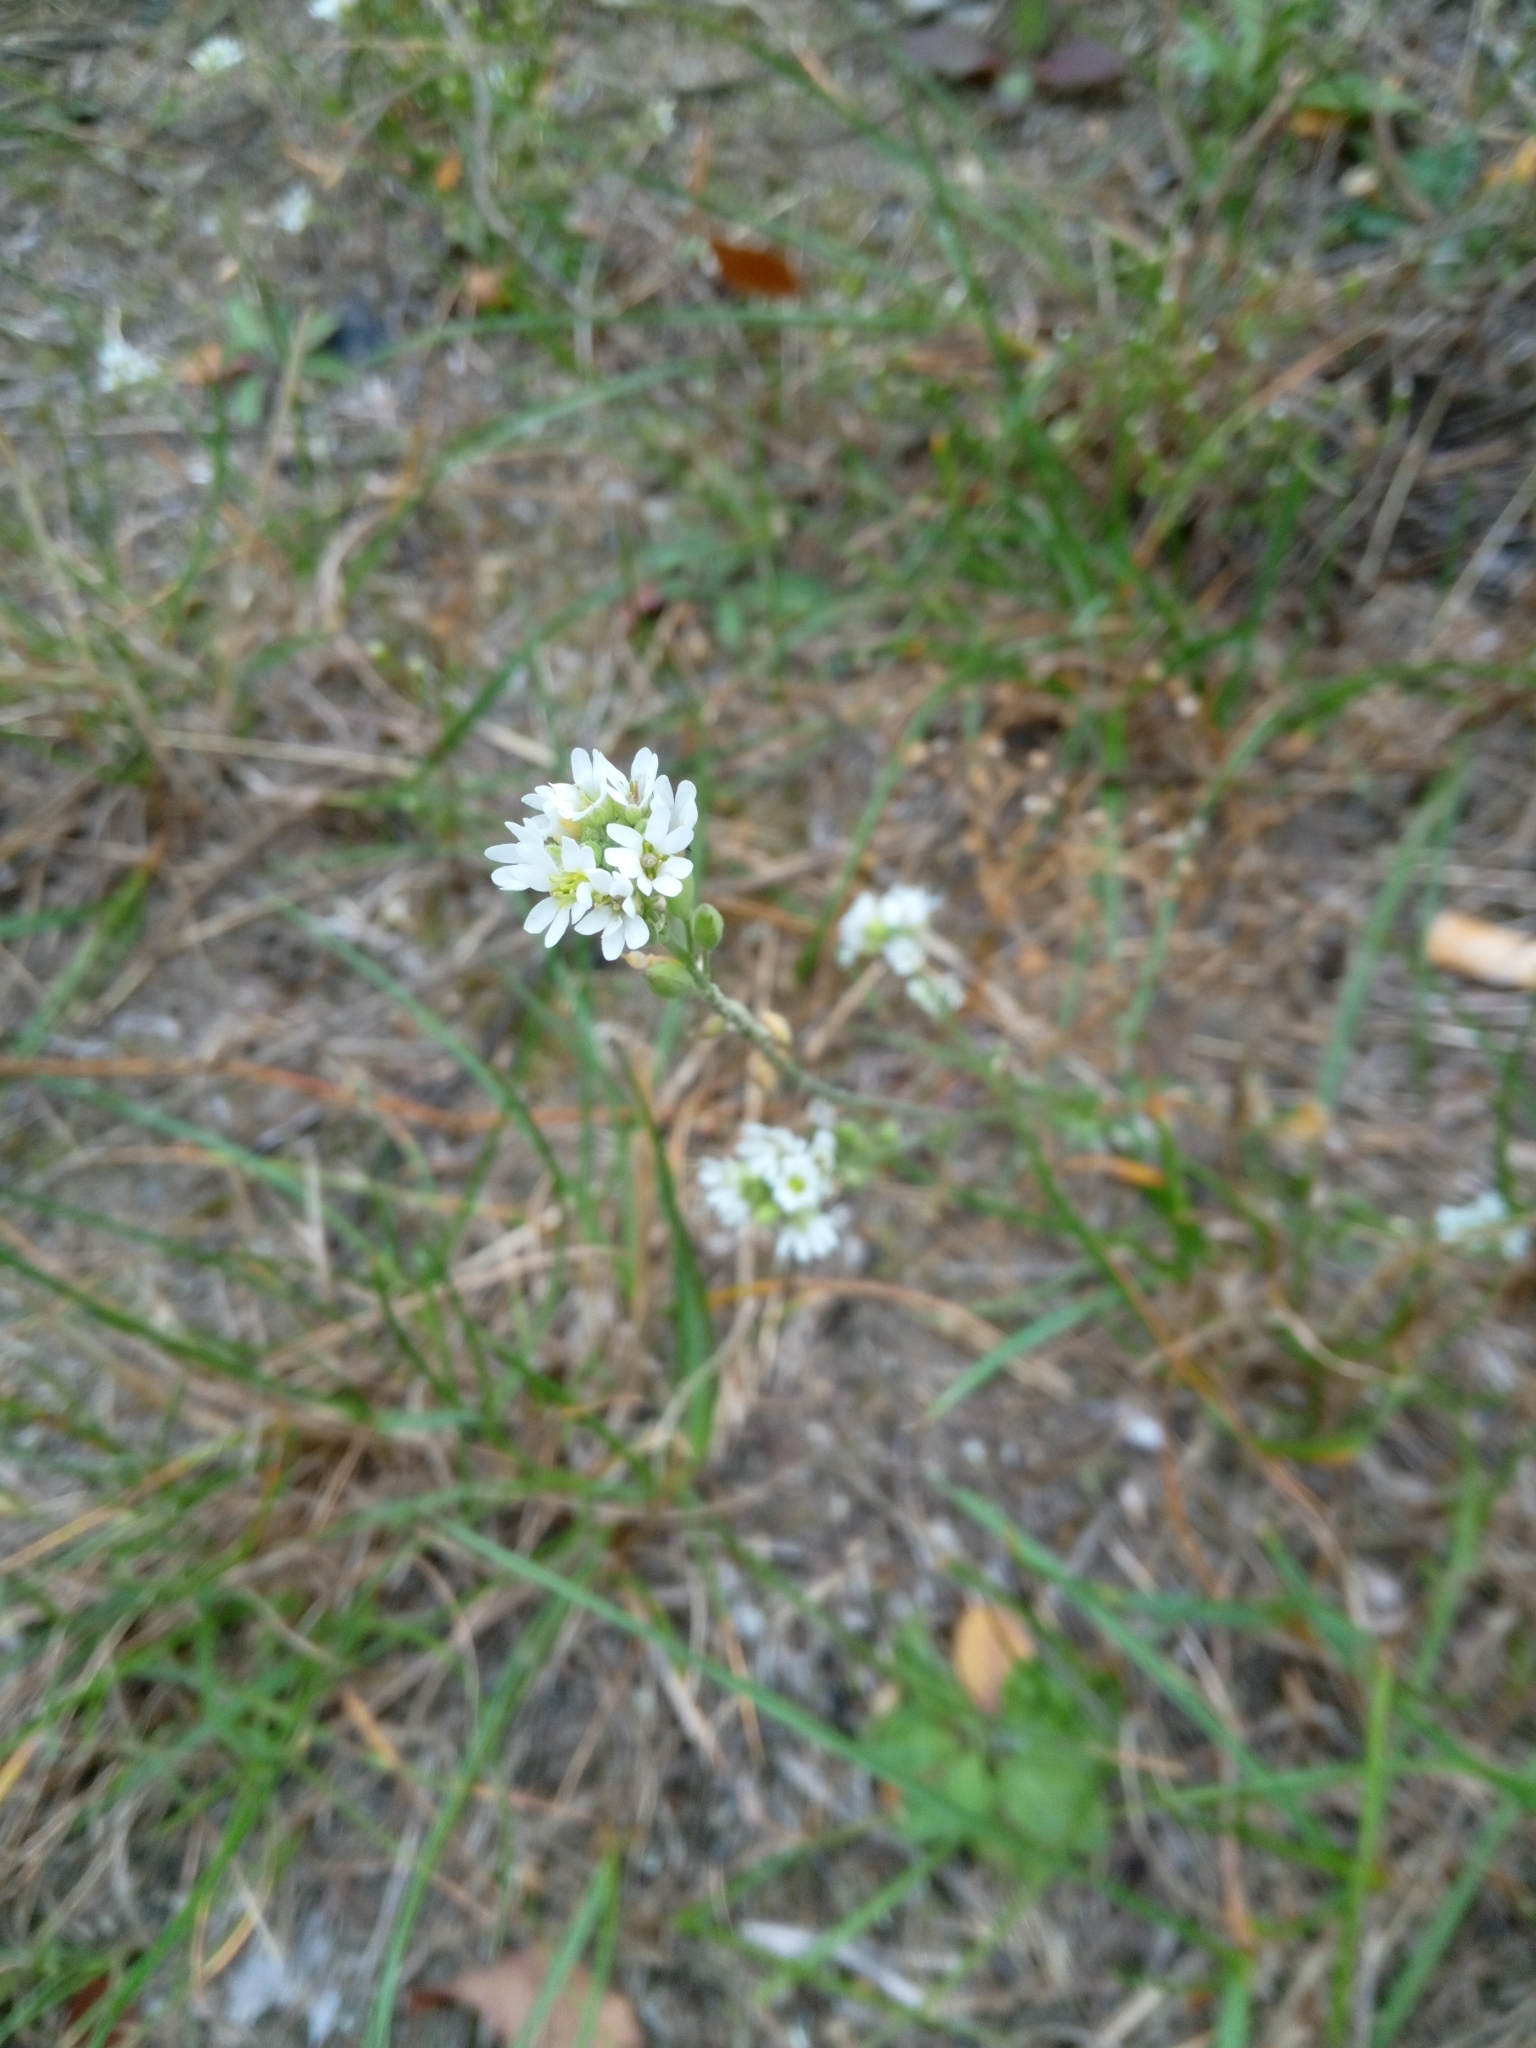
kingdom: Plantae
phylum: Tracheophyta
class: Magnoliopsida
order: Brassicales
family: Brassicaceae
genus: Berteroa
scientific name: Berteroa incana
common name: Hoary alison
